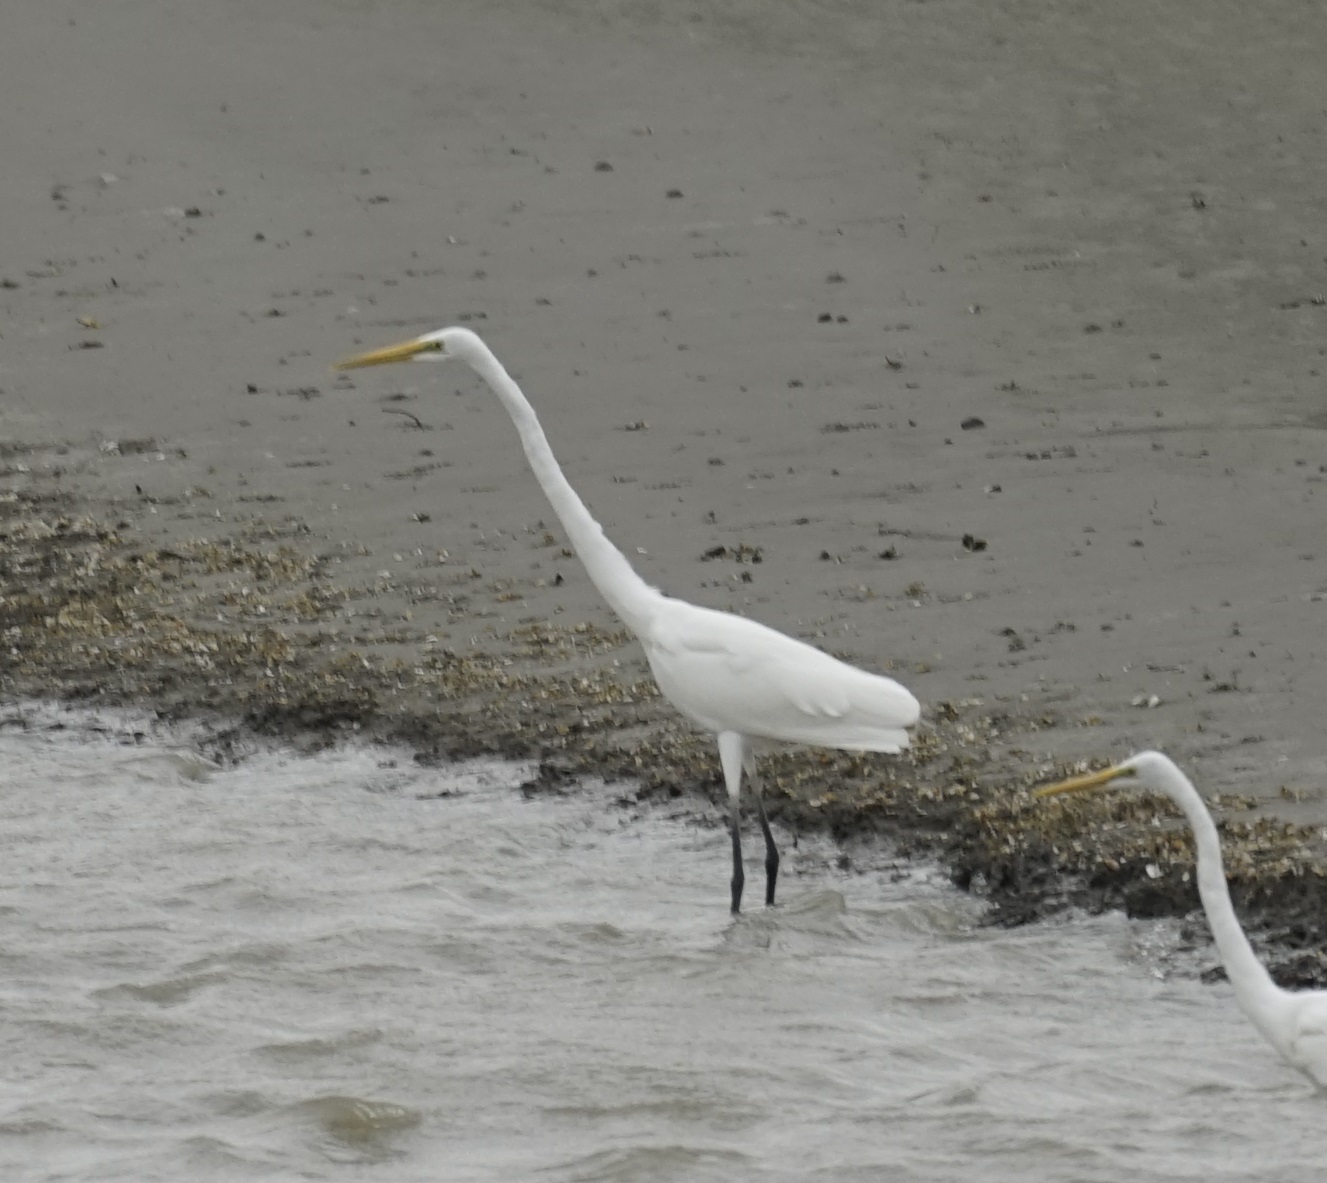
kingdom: Animalia
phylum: Chordata
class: Aves
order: Pelecaniformes
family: Ardeidae
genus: Ardea
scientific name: Ardea alba
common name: Great egret
